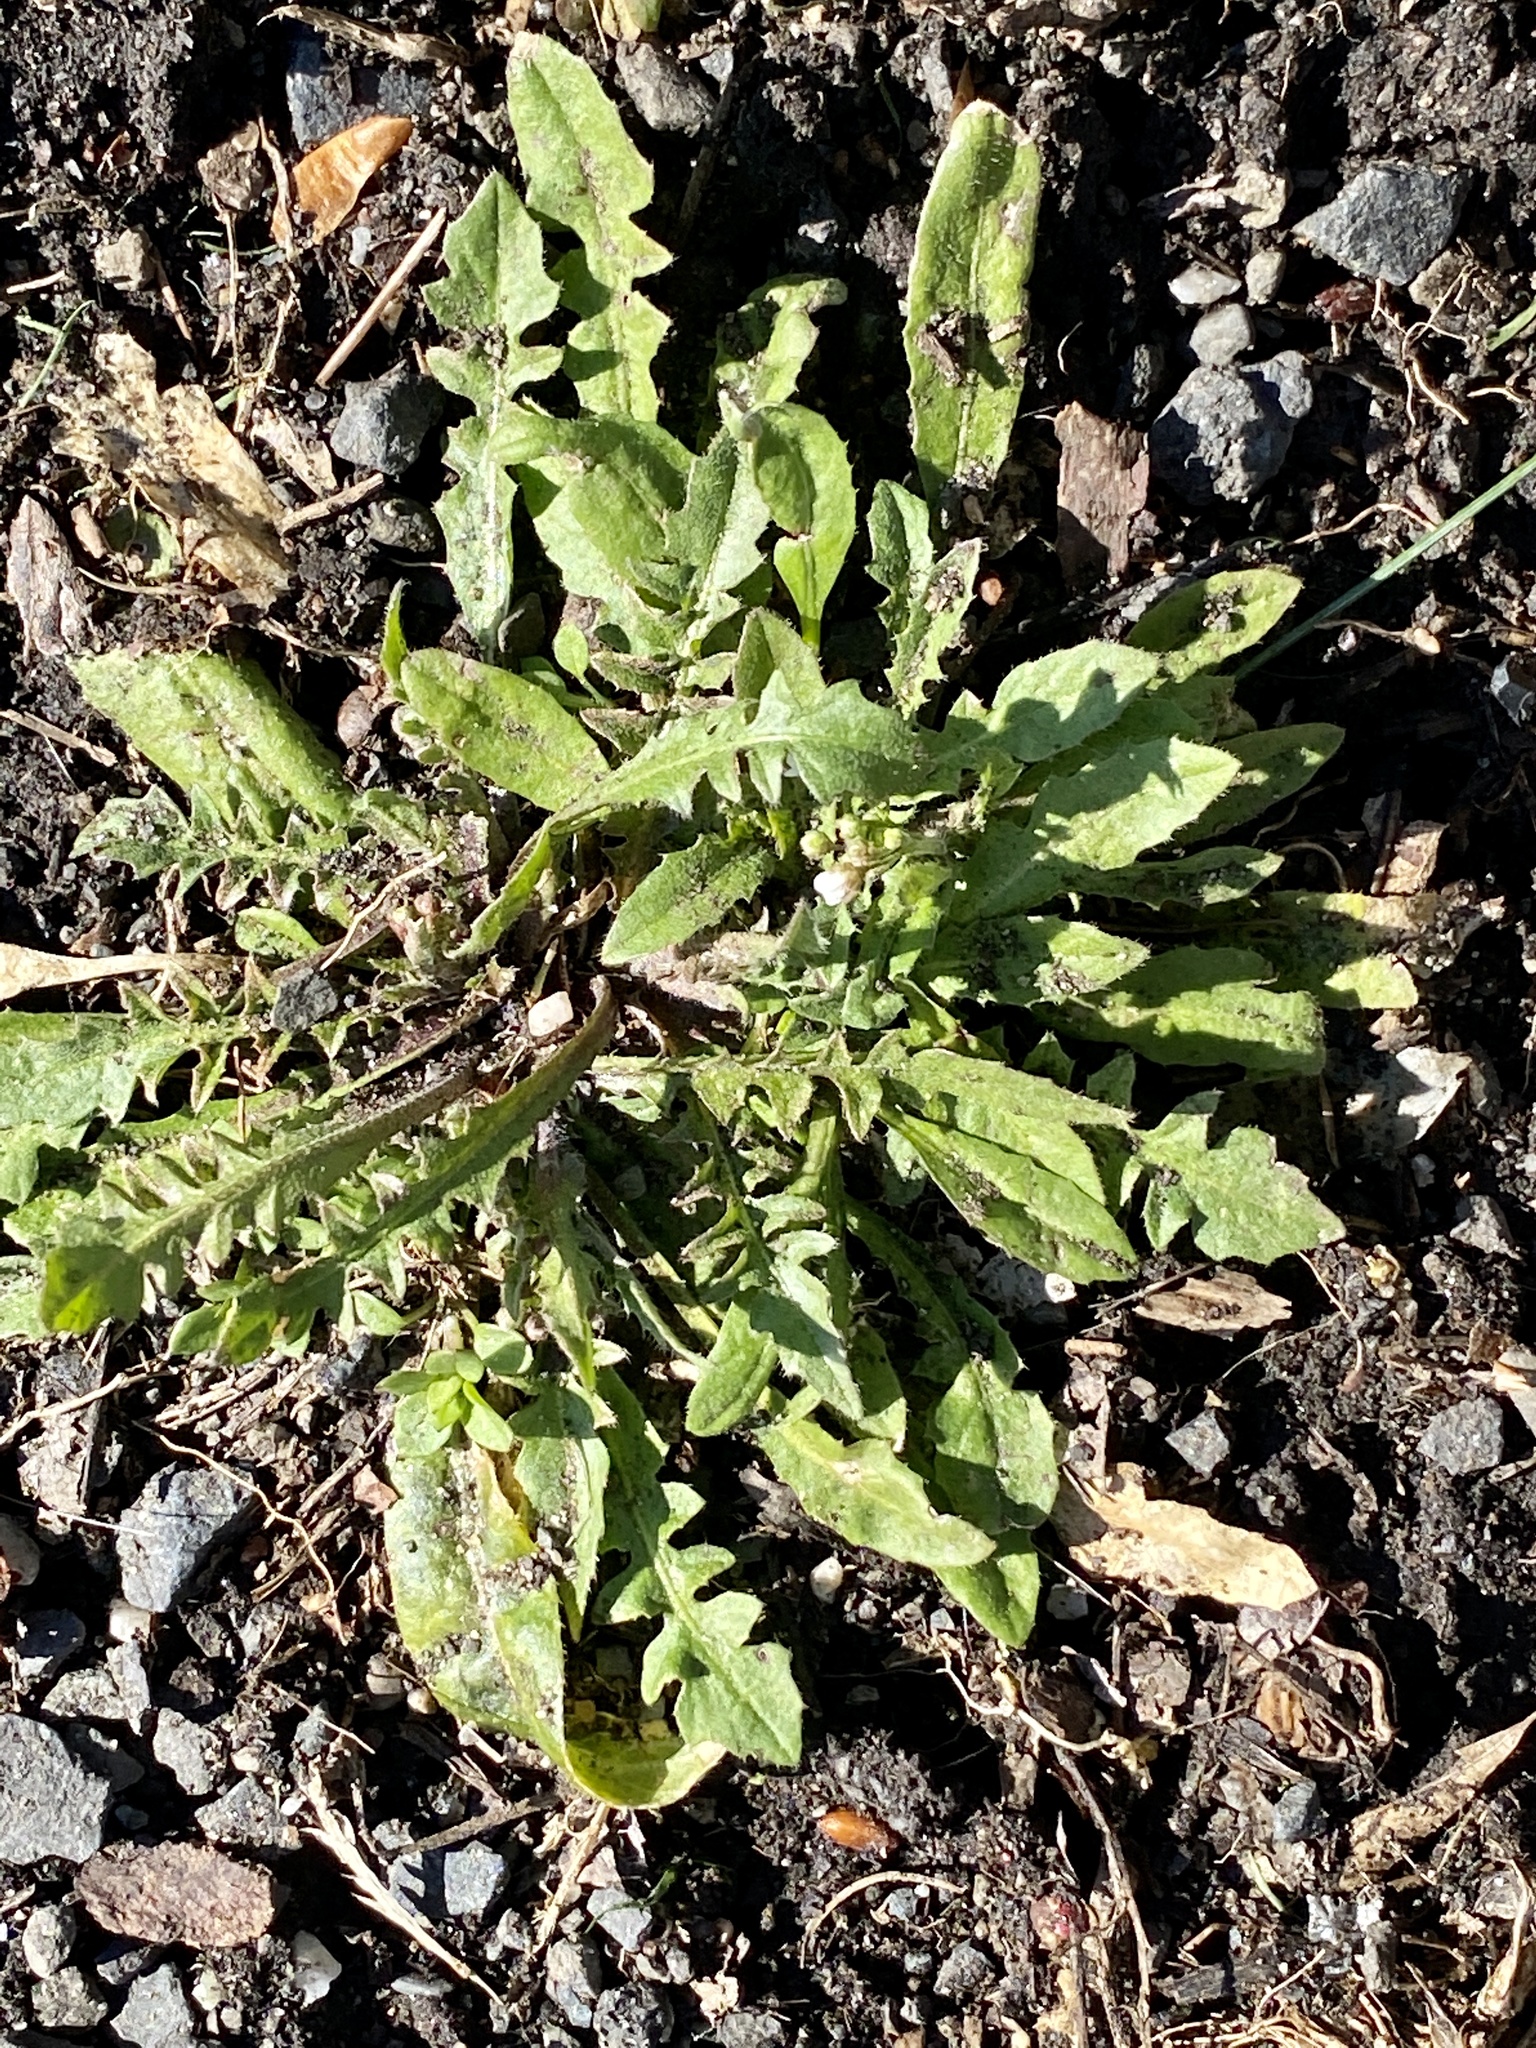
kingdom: Plantae
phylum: Tracheophyta
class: Magnoliopsida
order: Brassicales
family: Brassicaceae
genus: Capsella
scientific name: Capsella bursa-pastoris
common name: Shepherd's purse
